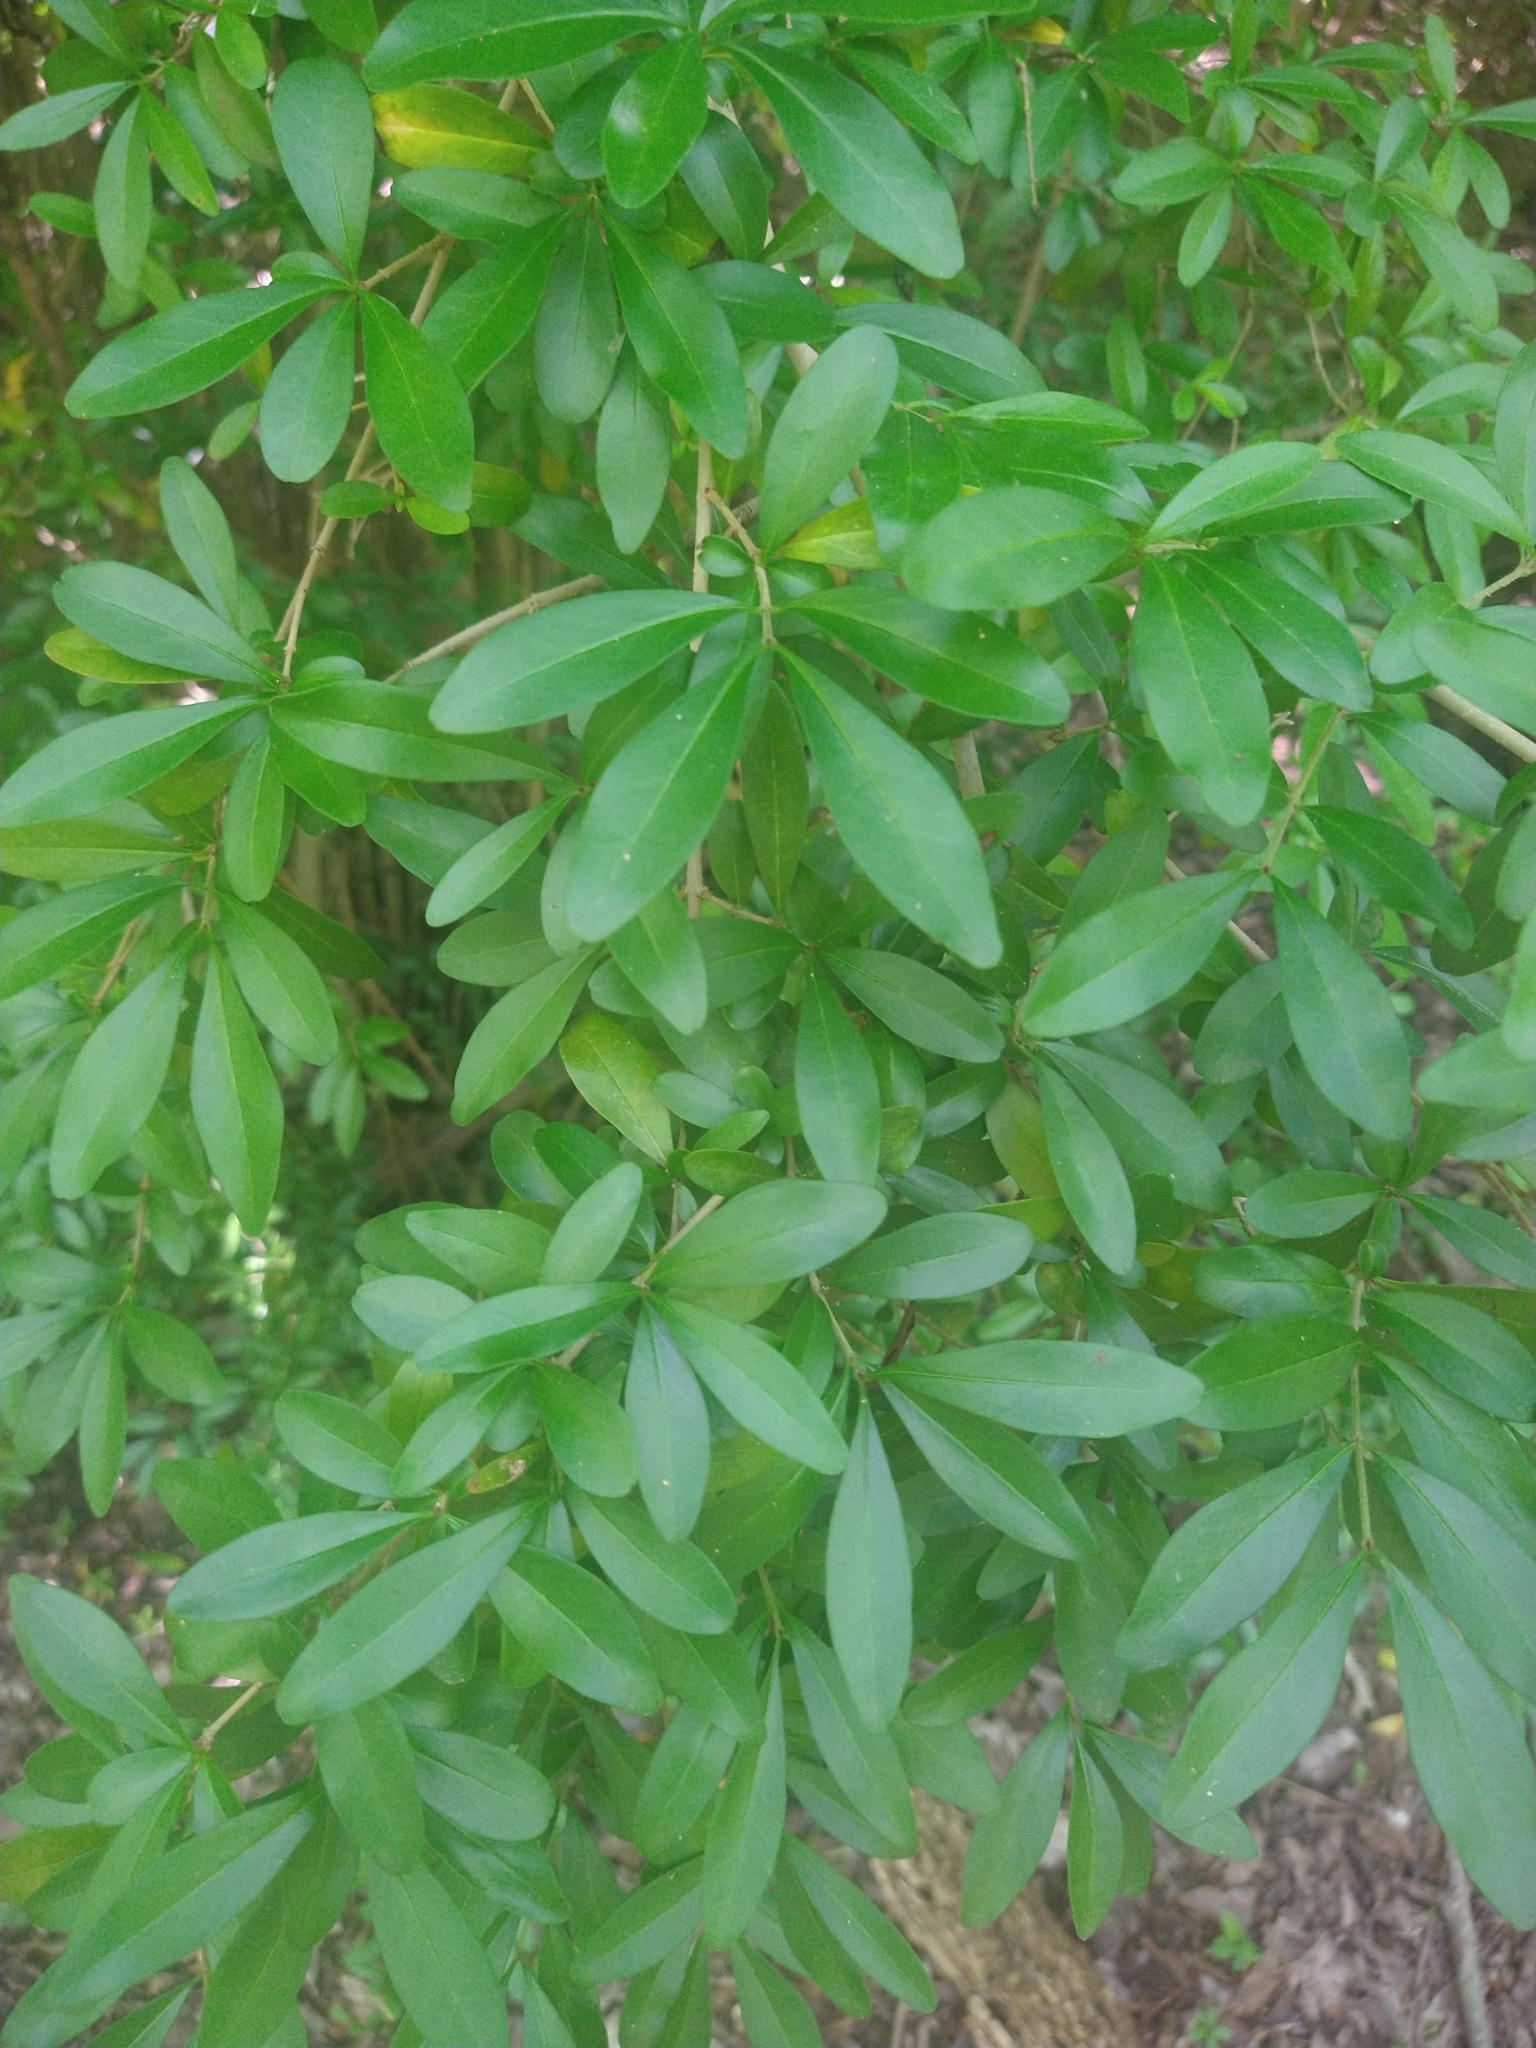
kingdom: Plantae
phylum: Tracheophyta
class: Magnoliopsida
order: Lamiales
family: Oleaceae
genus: Ligustrum
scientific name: Ligustrum quihoui
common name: Waxyleaf privet
